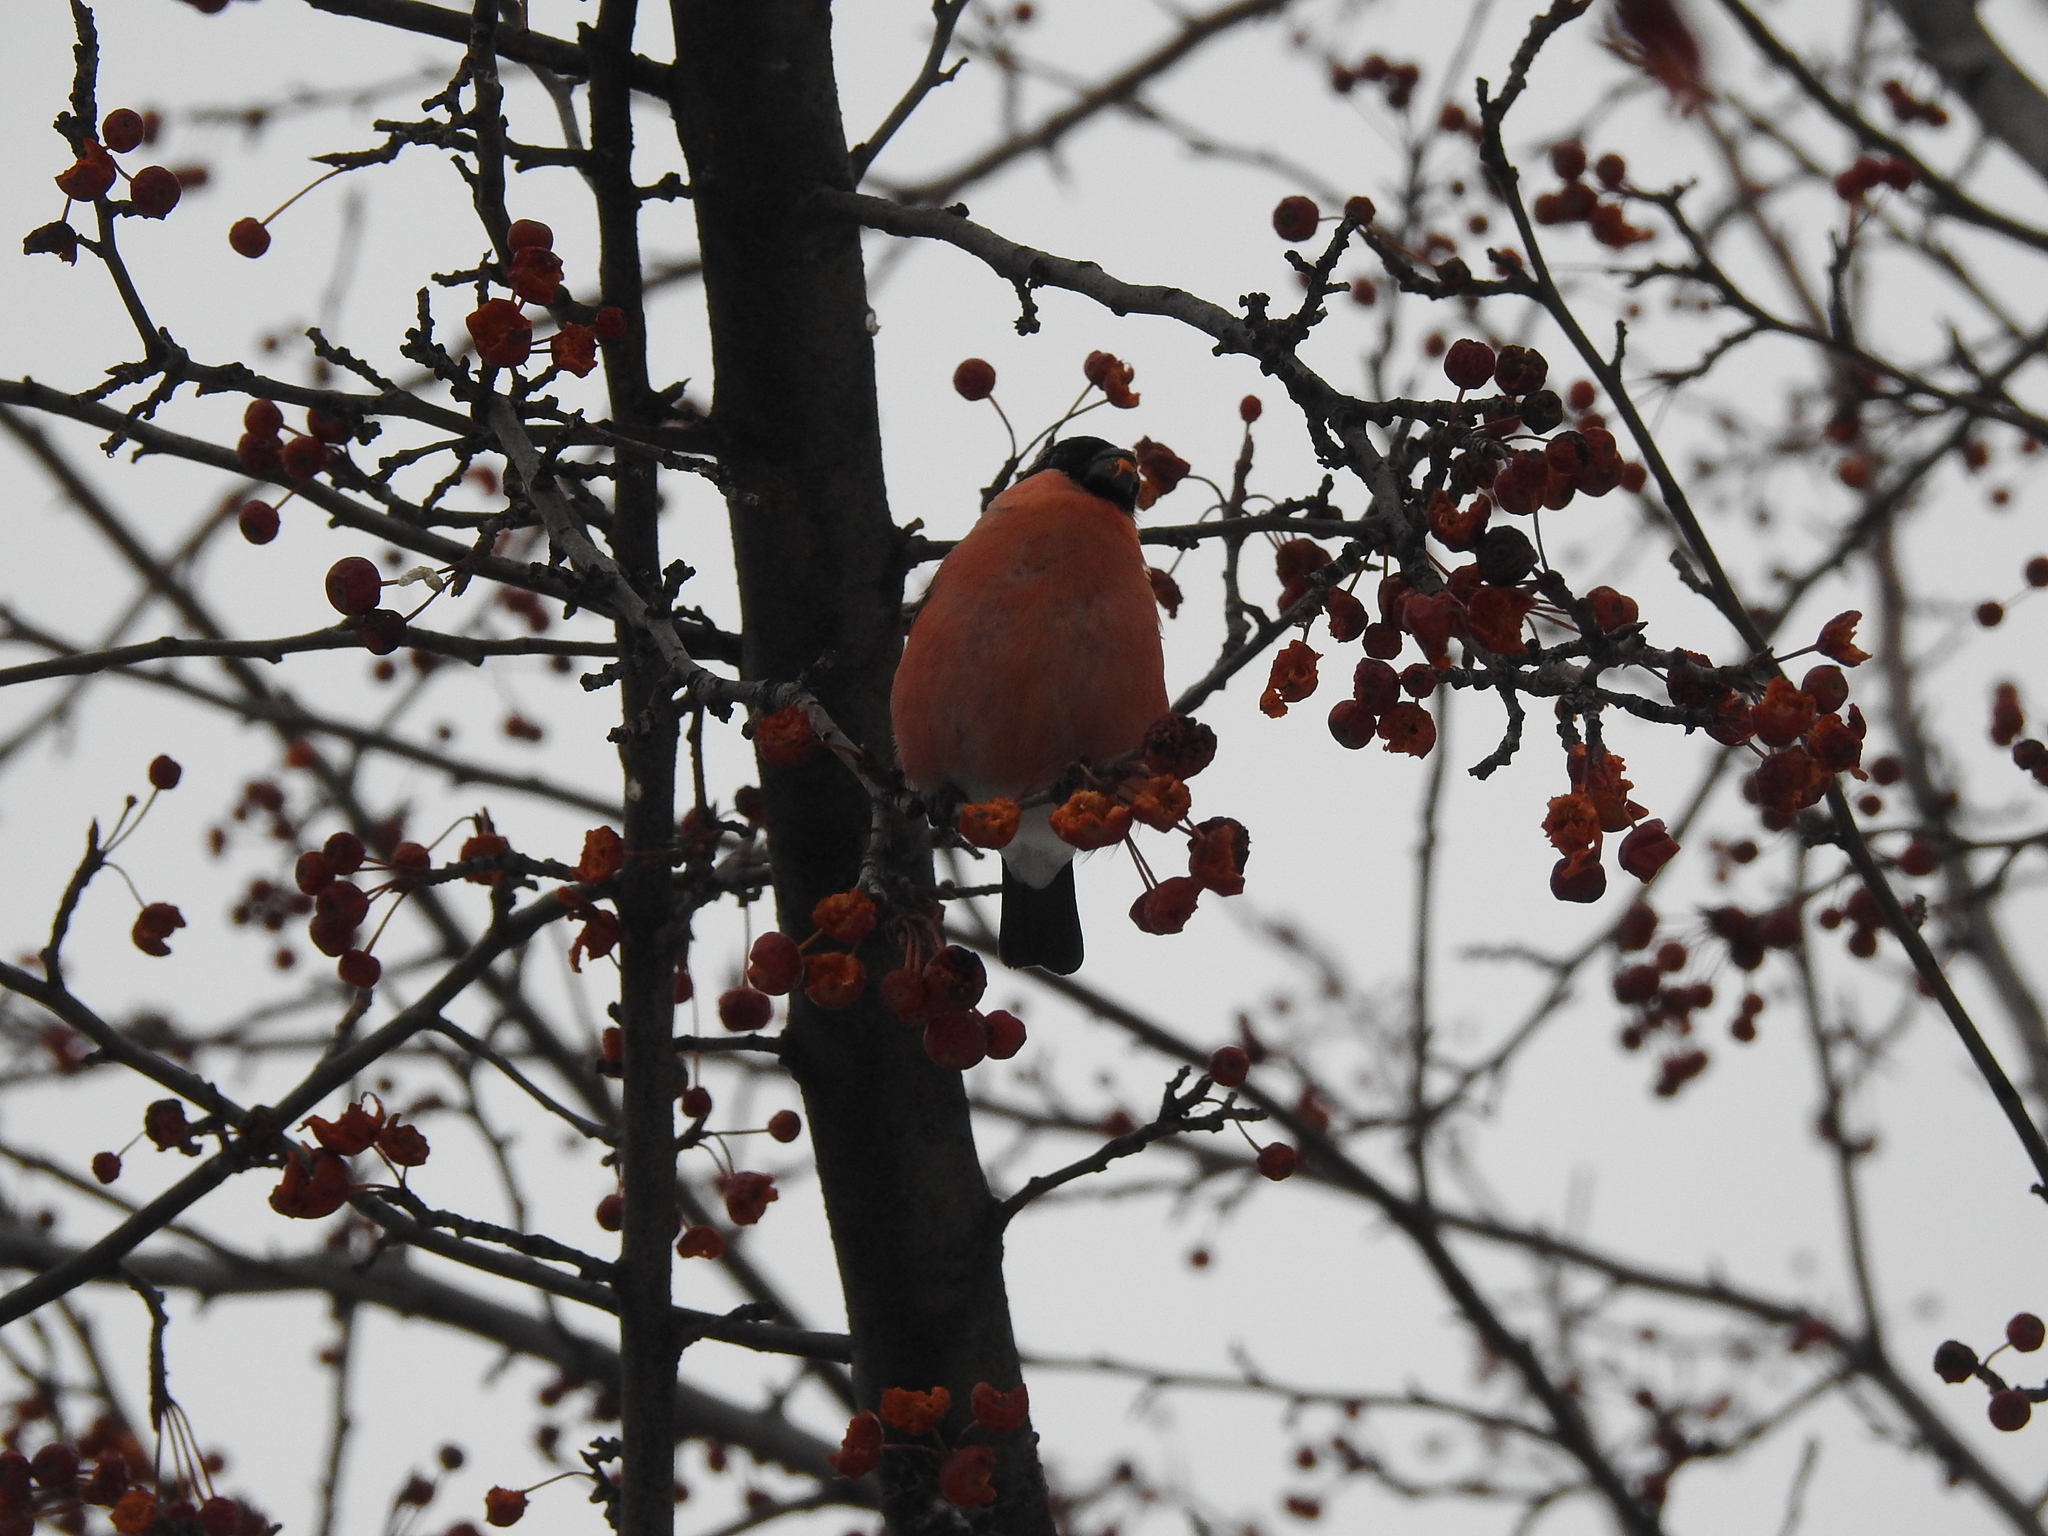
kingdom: Animalia
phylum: Chordata
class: Aves
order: Passeriformes
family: Fringillidae
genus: Pyrrhula
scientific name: Pyrrhula pyrrhula
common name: Eurasian bullfinch
